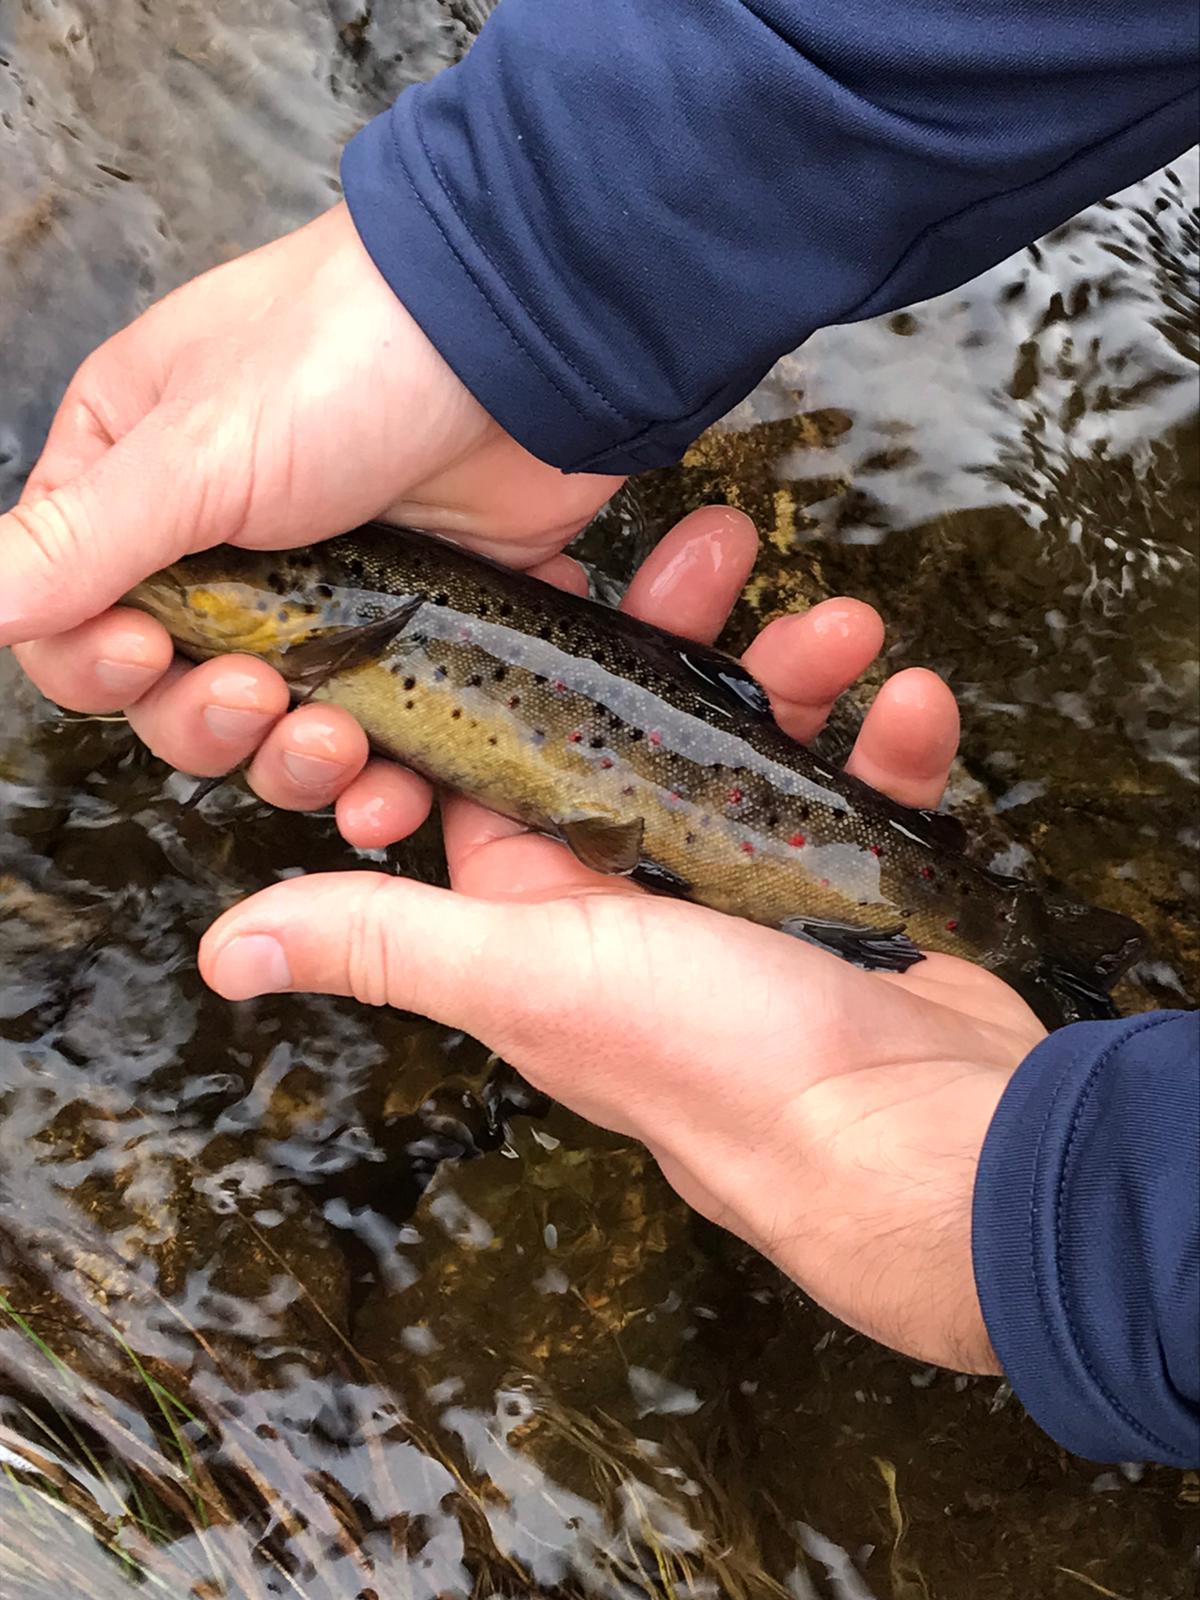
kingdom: Animalia
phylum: Chordata
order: Salmoniformes
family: Salmonidae
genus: Salmo
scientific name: Salmo trutta
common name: Brown trout
